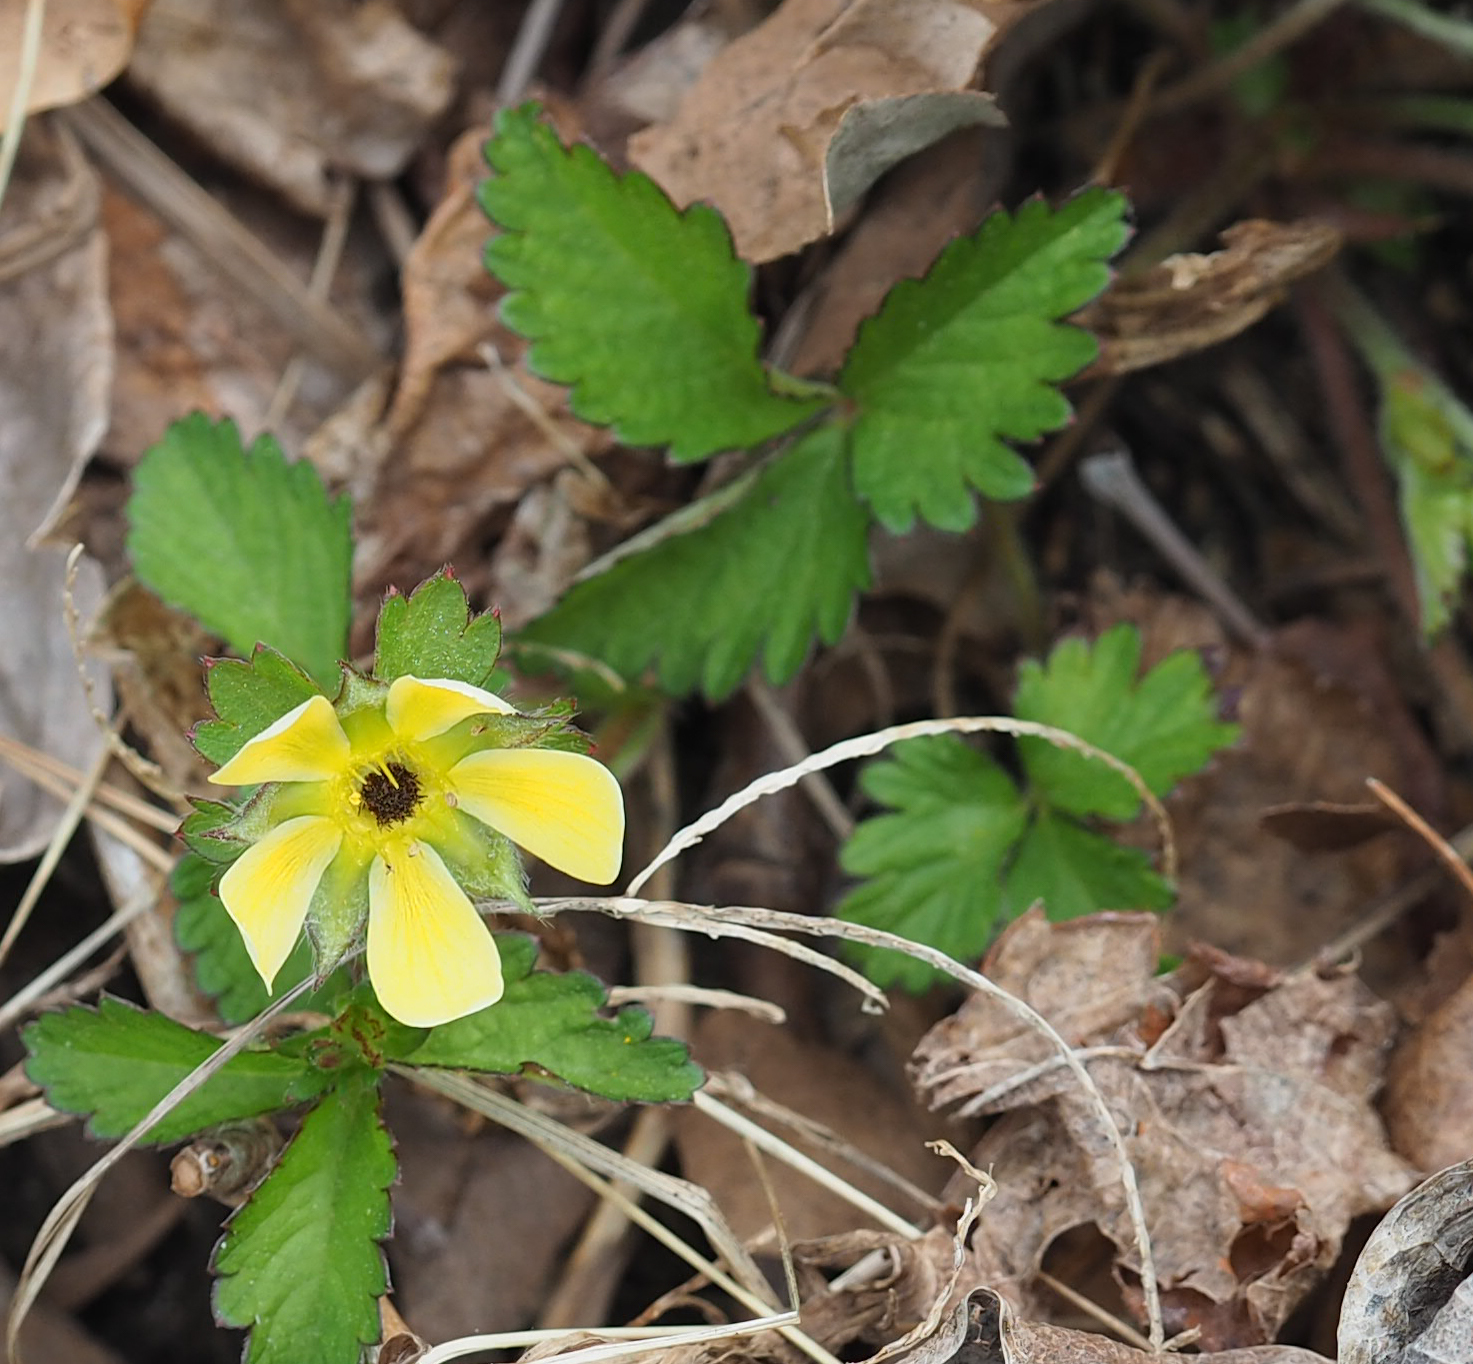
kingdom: Plantae
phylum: Tracheophyta
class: Magnoliopsida
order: Rosales
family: Rosaceae
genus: Potentilla
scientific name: Potentilla indica
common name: Yellow-flowered strawberry
